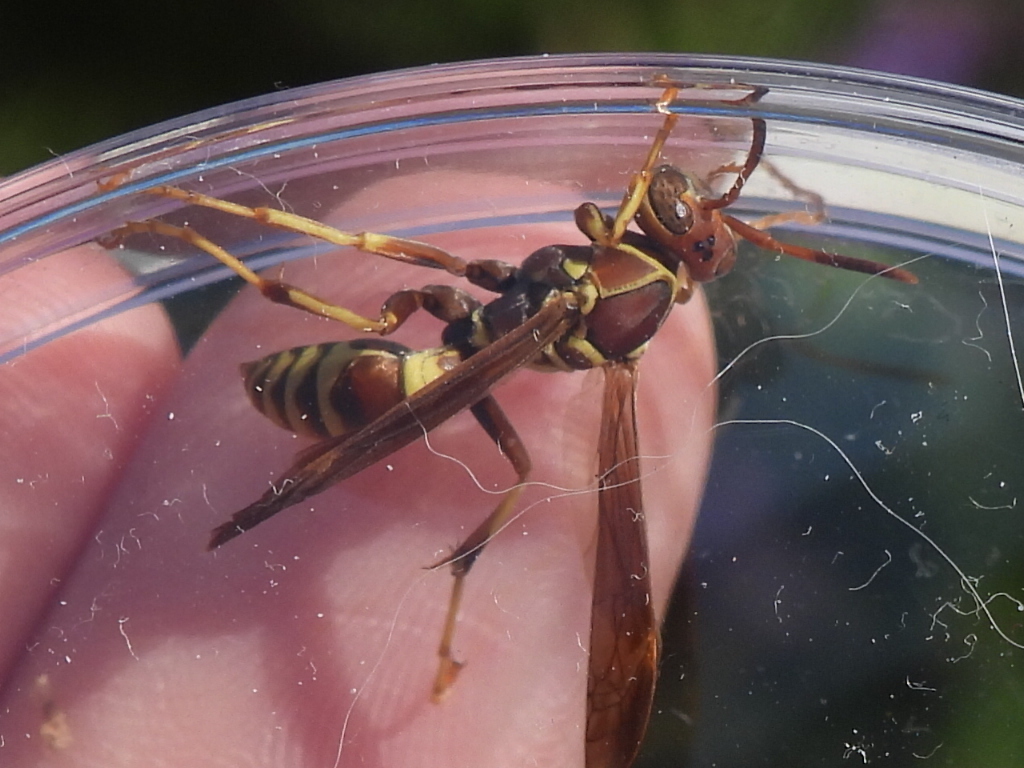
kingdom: Animalia
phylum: Arthropoda
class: Insecta
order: Hymenoptera
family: Eumenidae
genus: Polistes
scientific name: Polistes dorsalis
